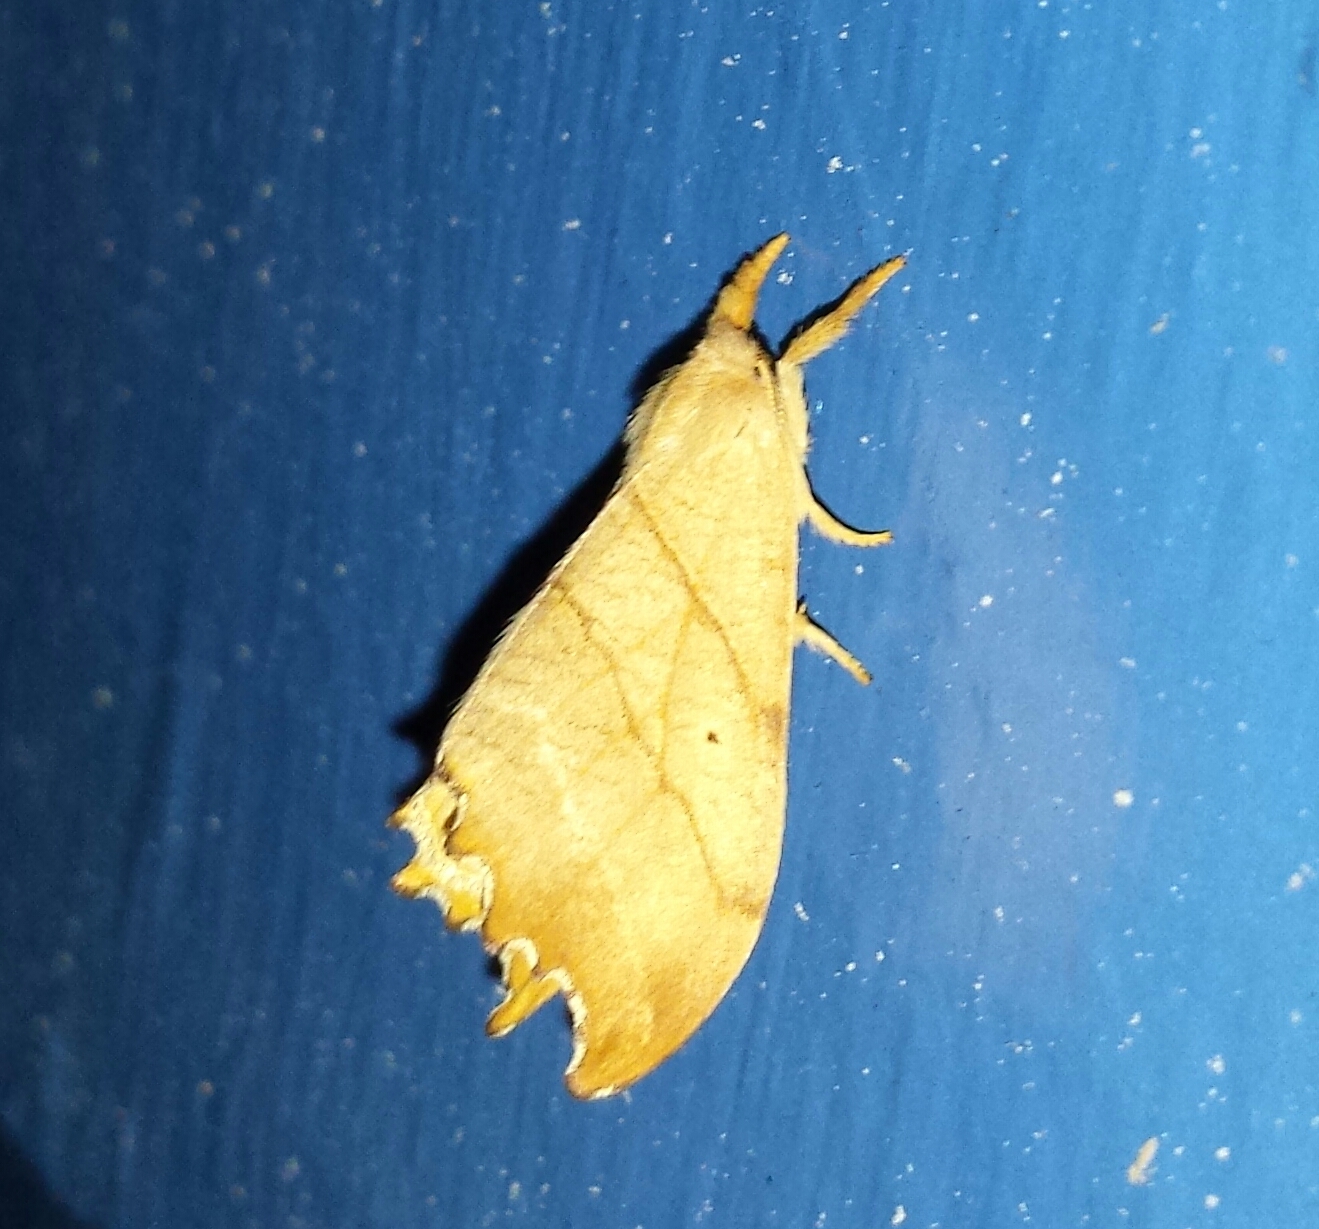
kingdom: Animalia
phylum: Arthropoda
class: Insecta
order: Lepidoptera
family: Drepanidae
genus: Falcaria
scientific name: Falcaria bilineata
